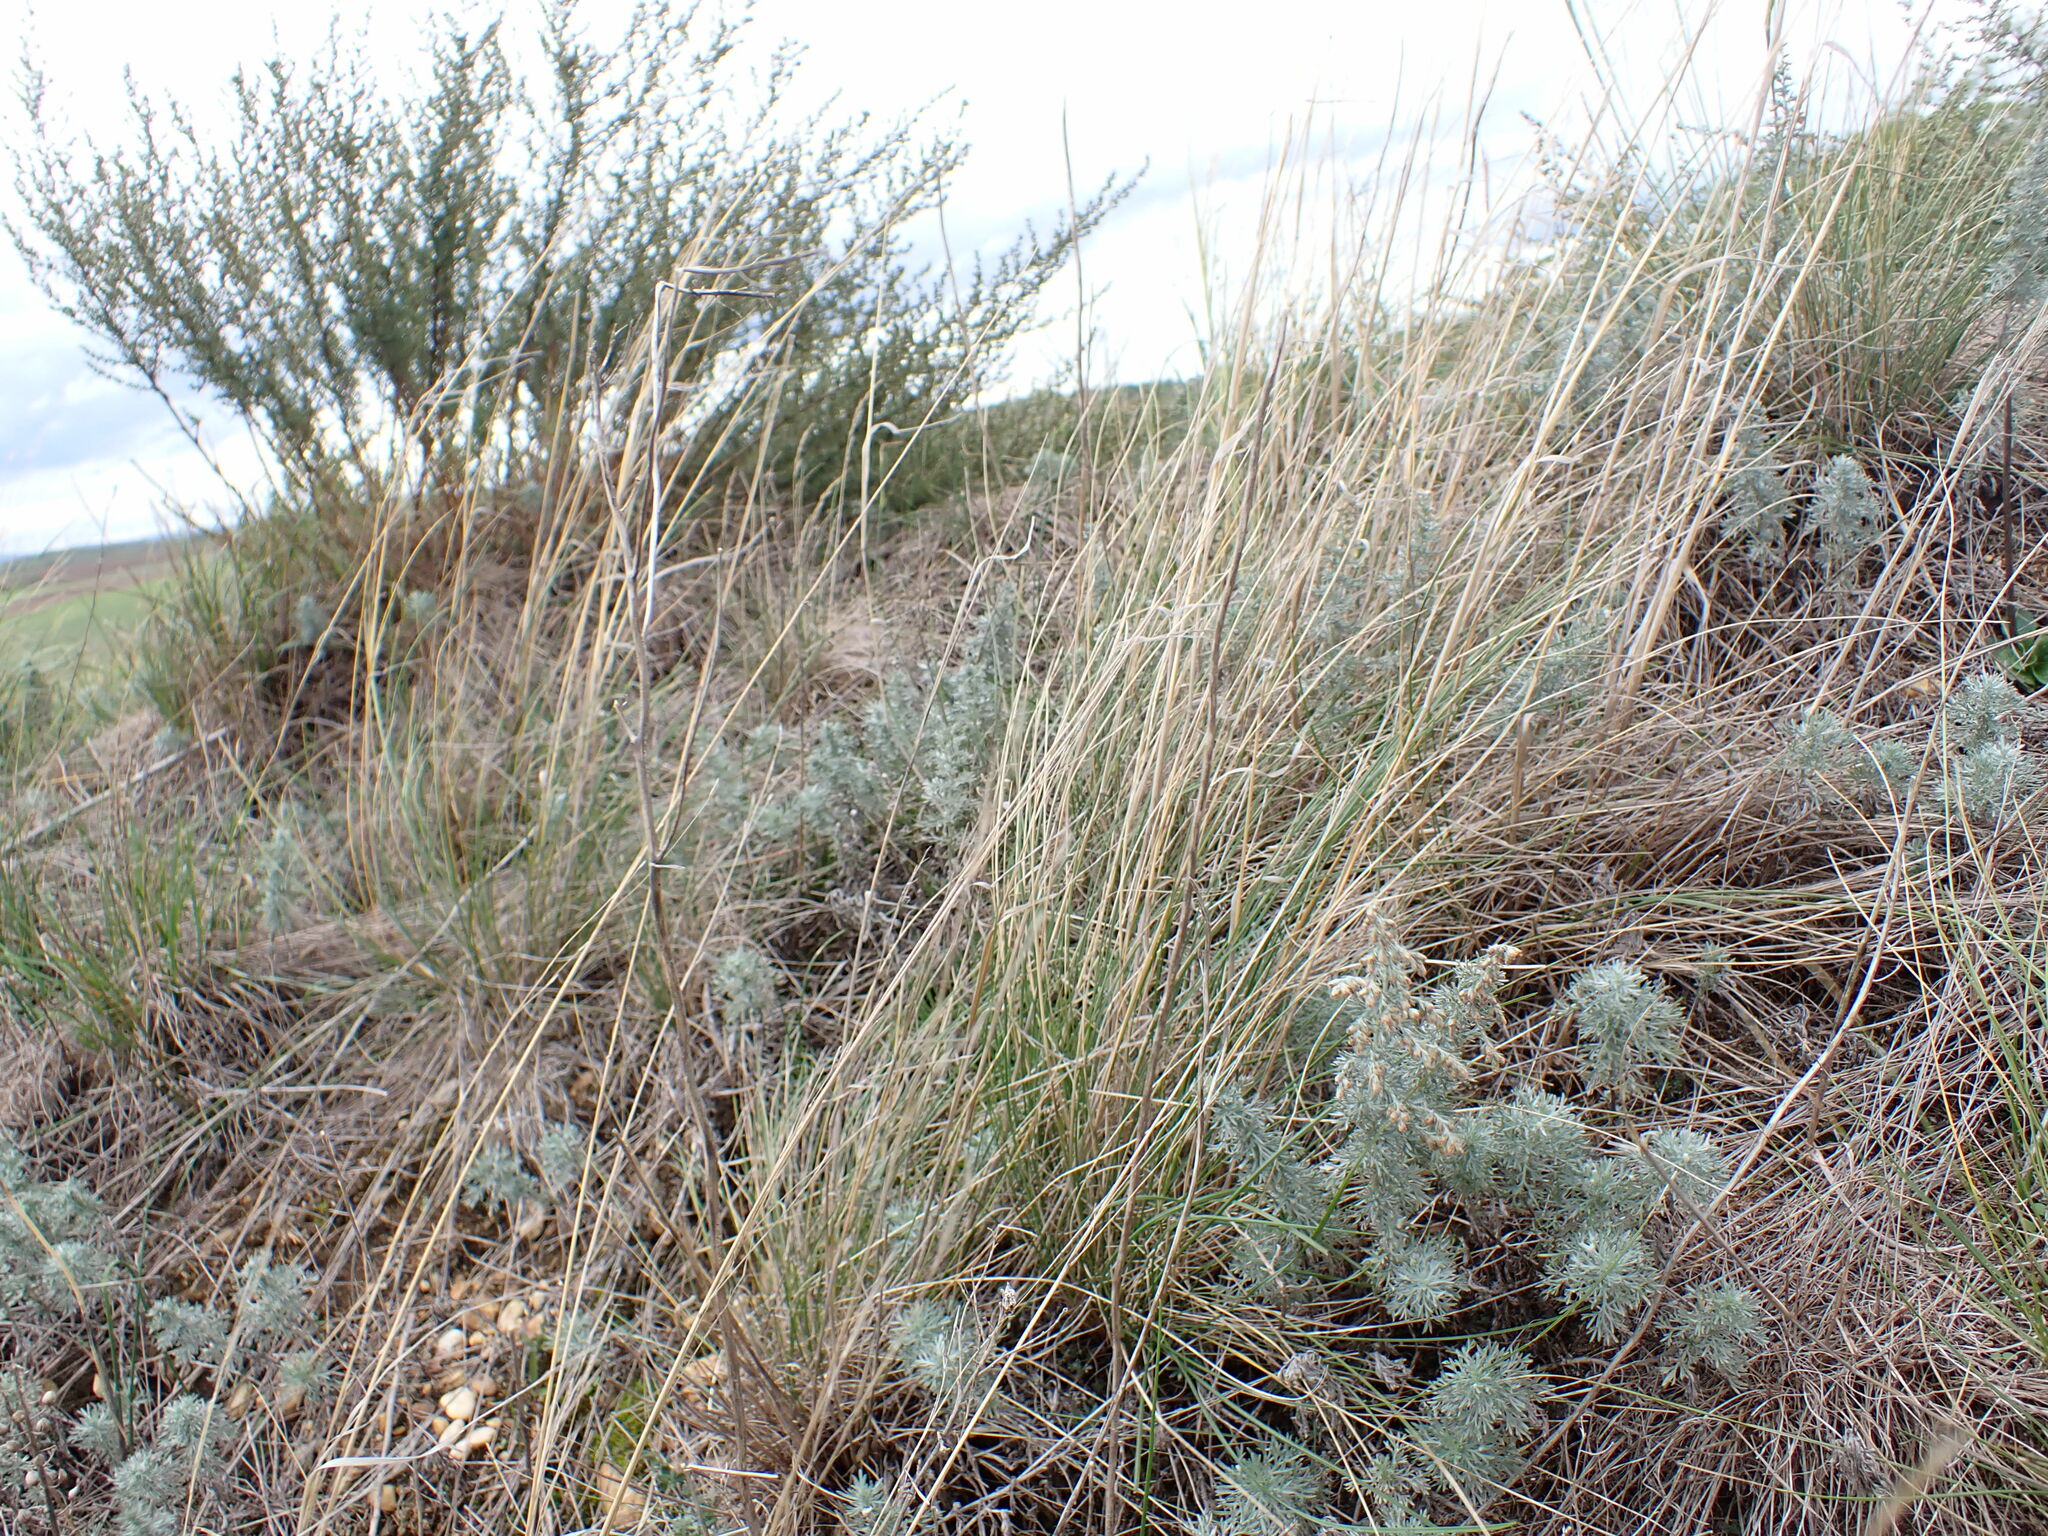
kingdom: Plantae
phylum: Tracheophyta
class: Magnoliopsida
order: Asterales
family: Asteraceae
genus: Artemisia
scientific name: Artemisia austriaca
